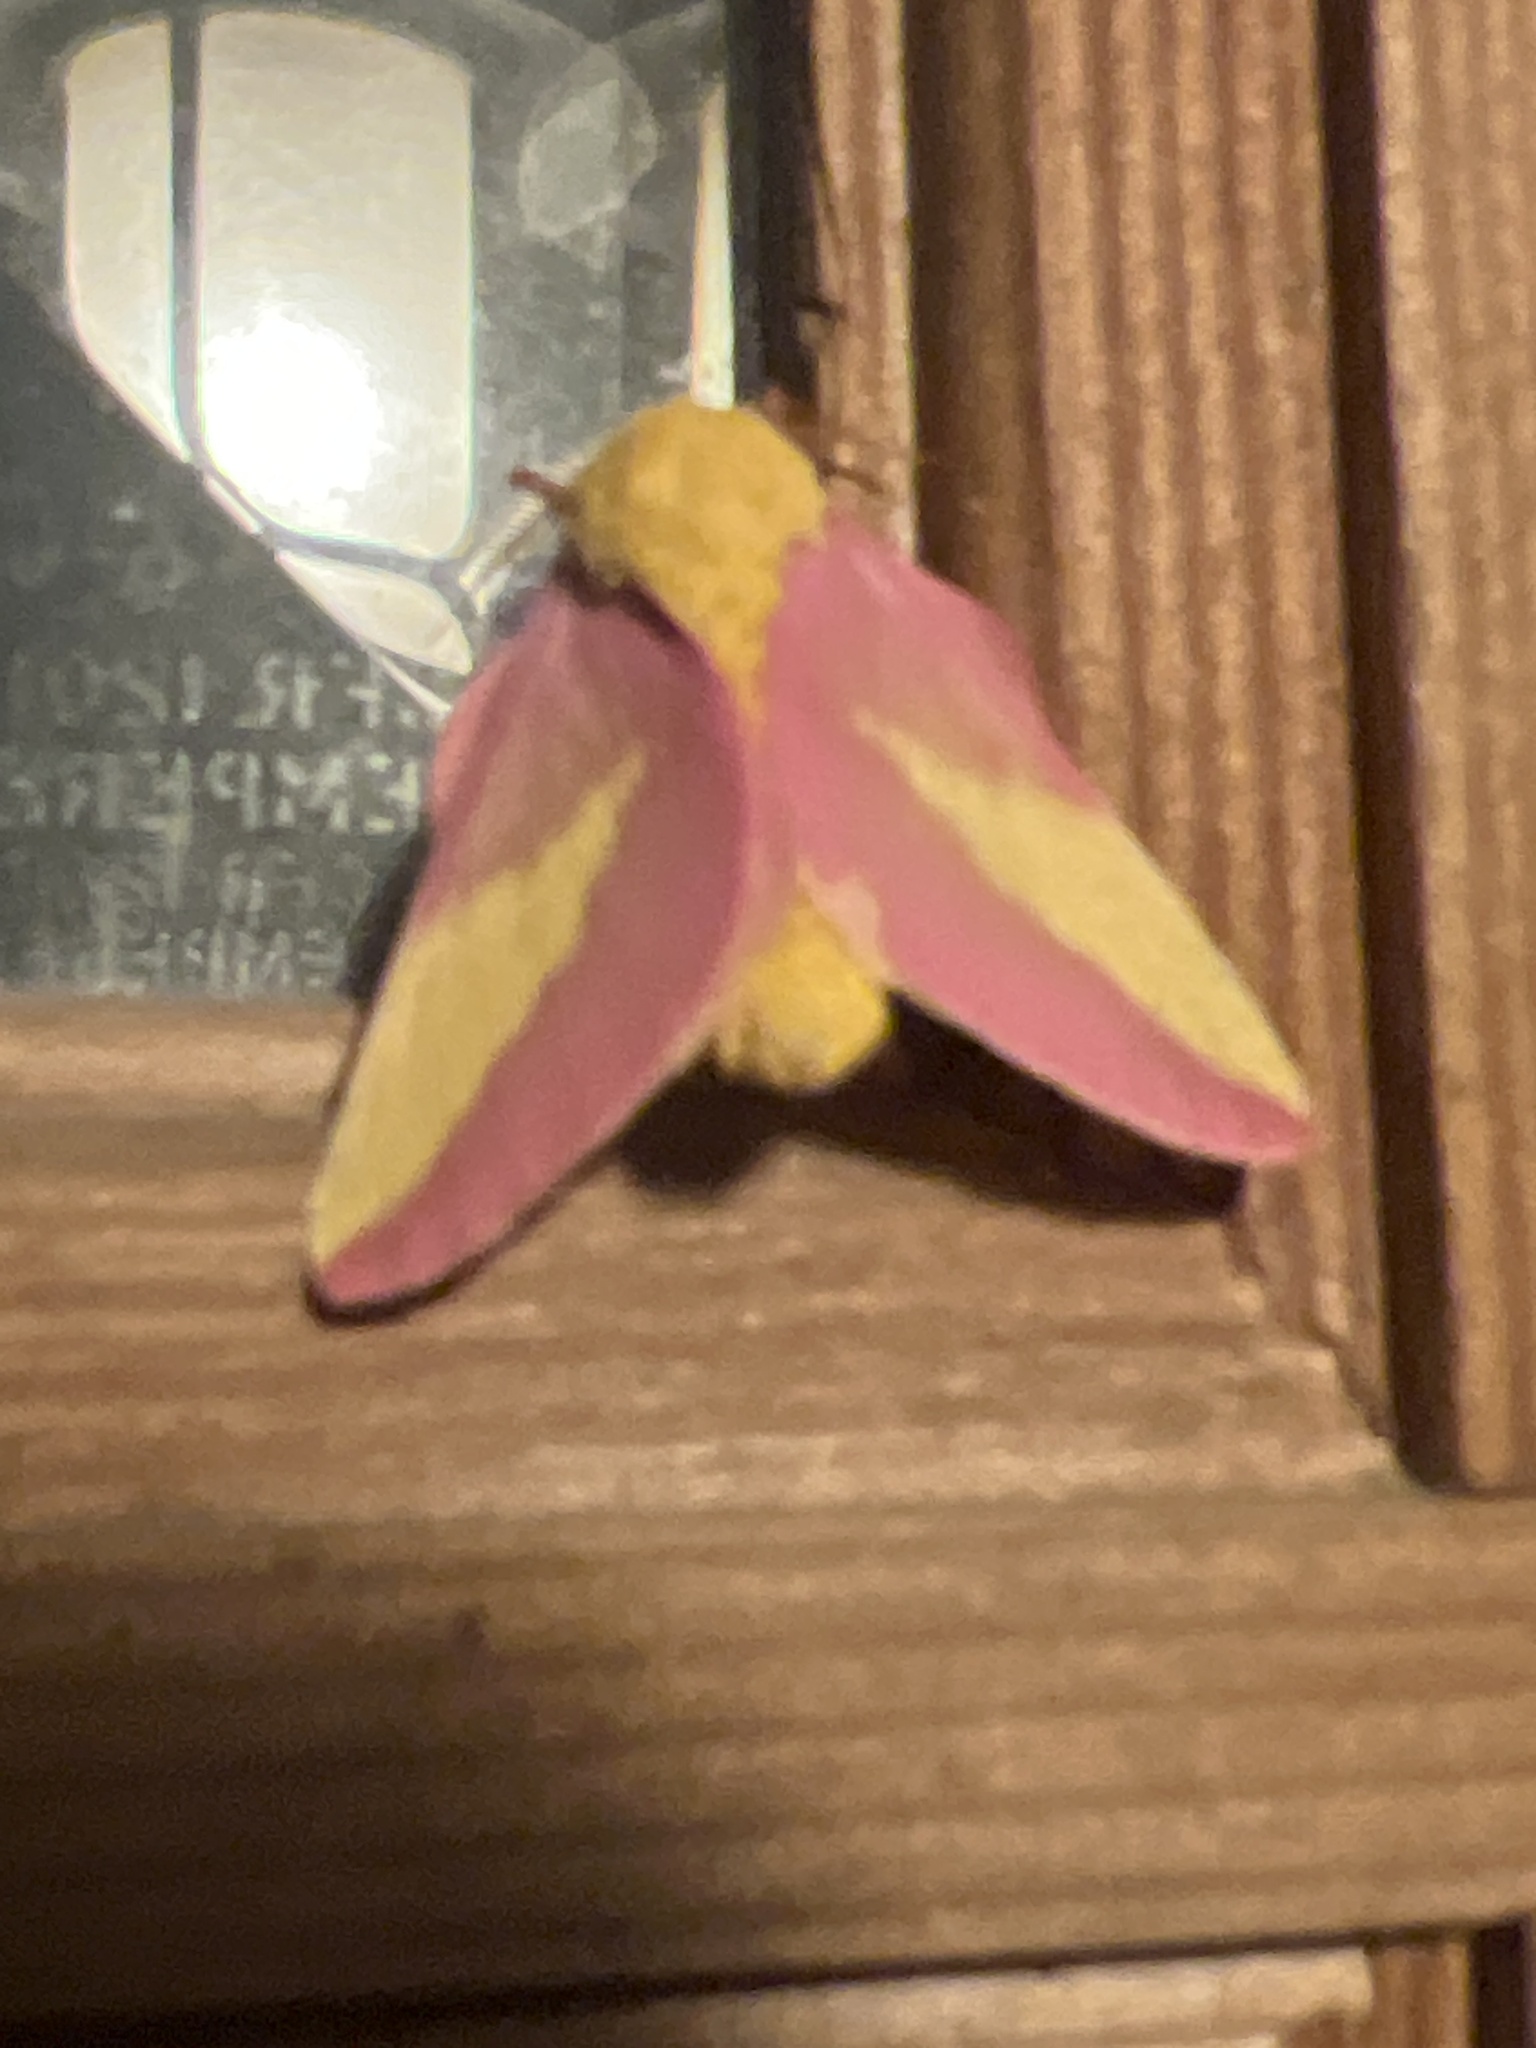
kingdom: Animalia
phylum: Arthropoda
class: Insecta
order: Lepidoptera
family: Saturniidae
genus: Dryocampa
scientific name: Dryocampa rubicunda
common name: Rosy maple moth
